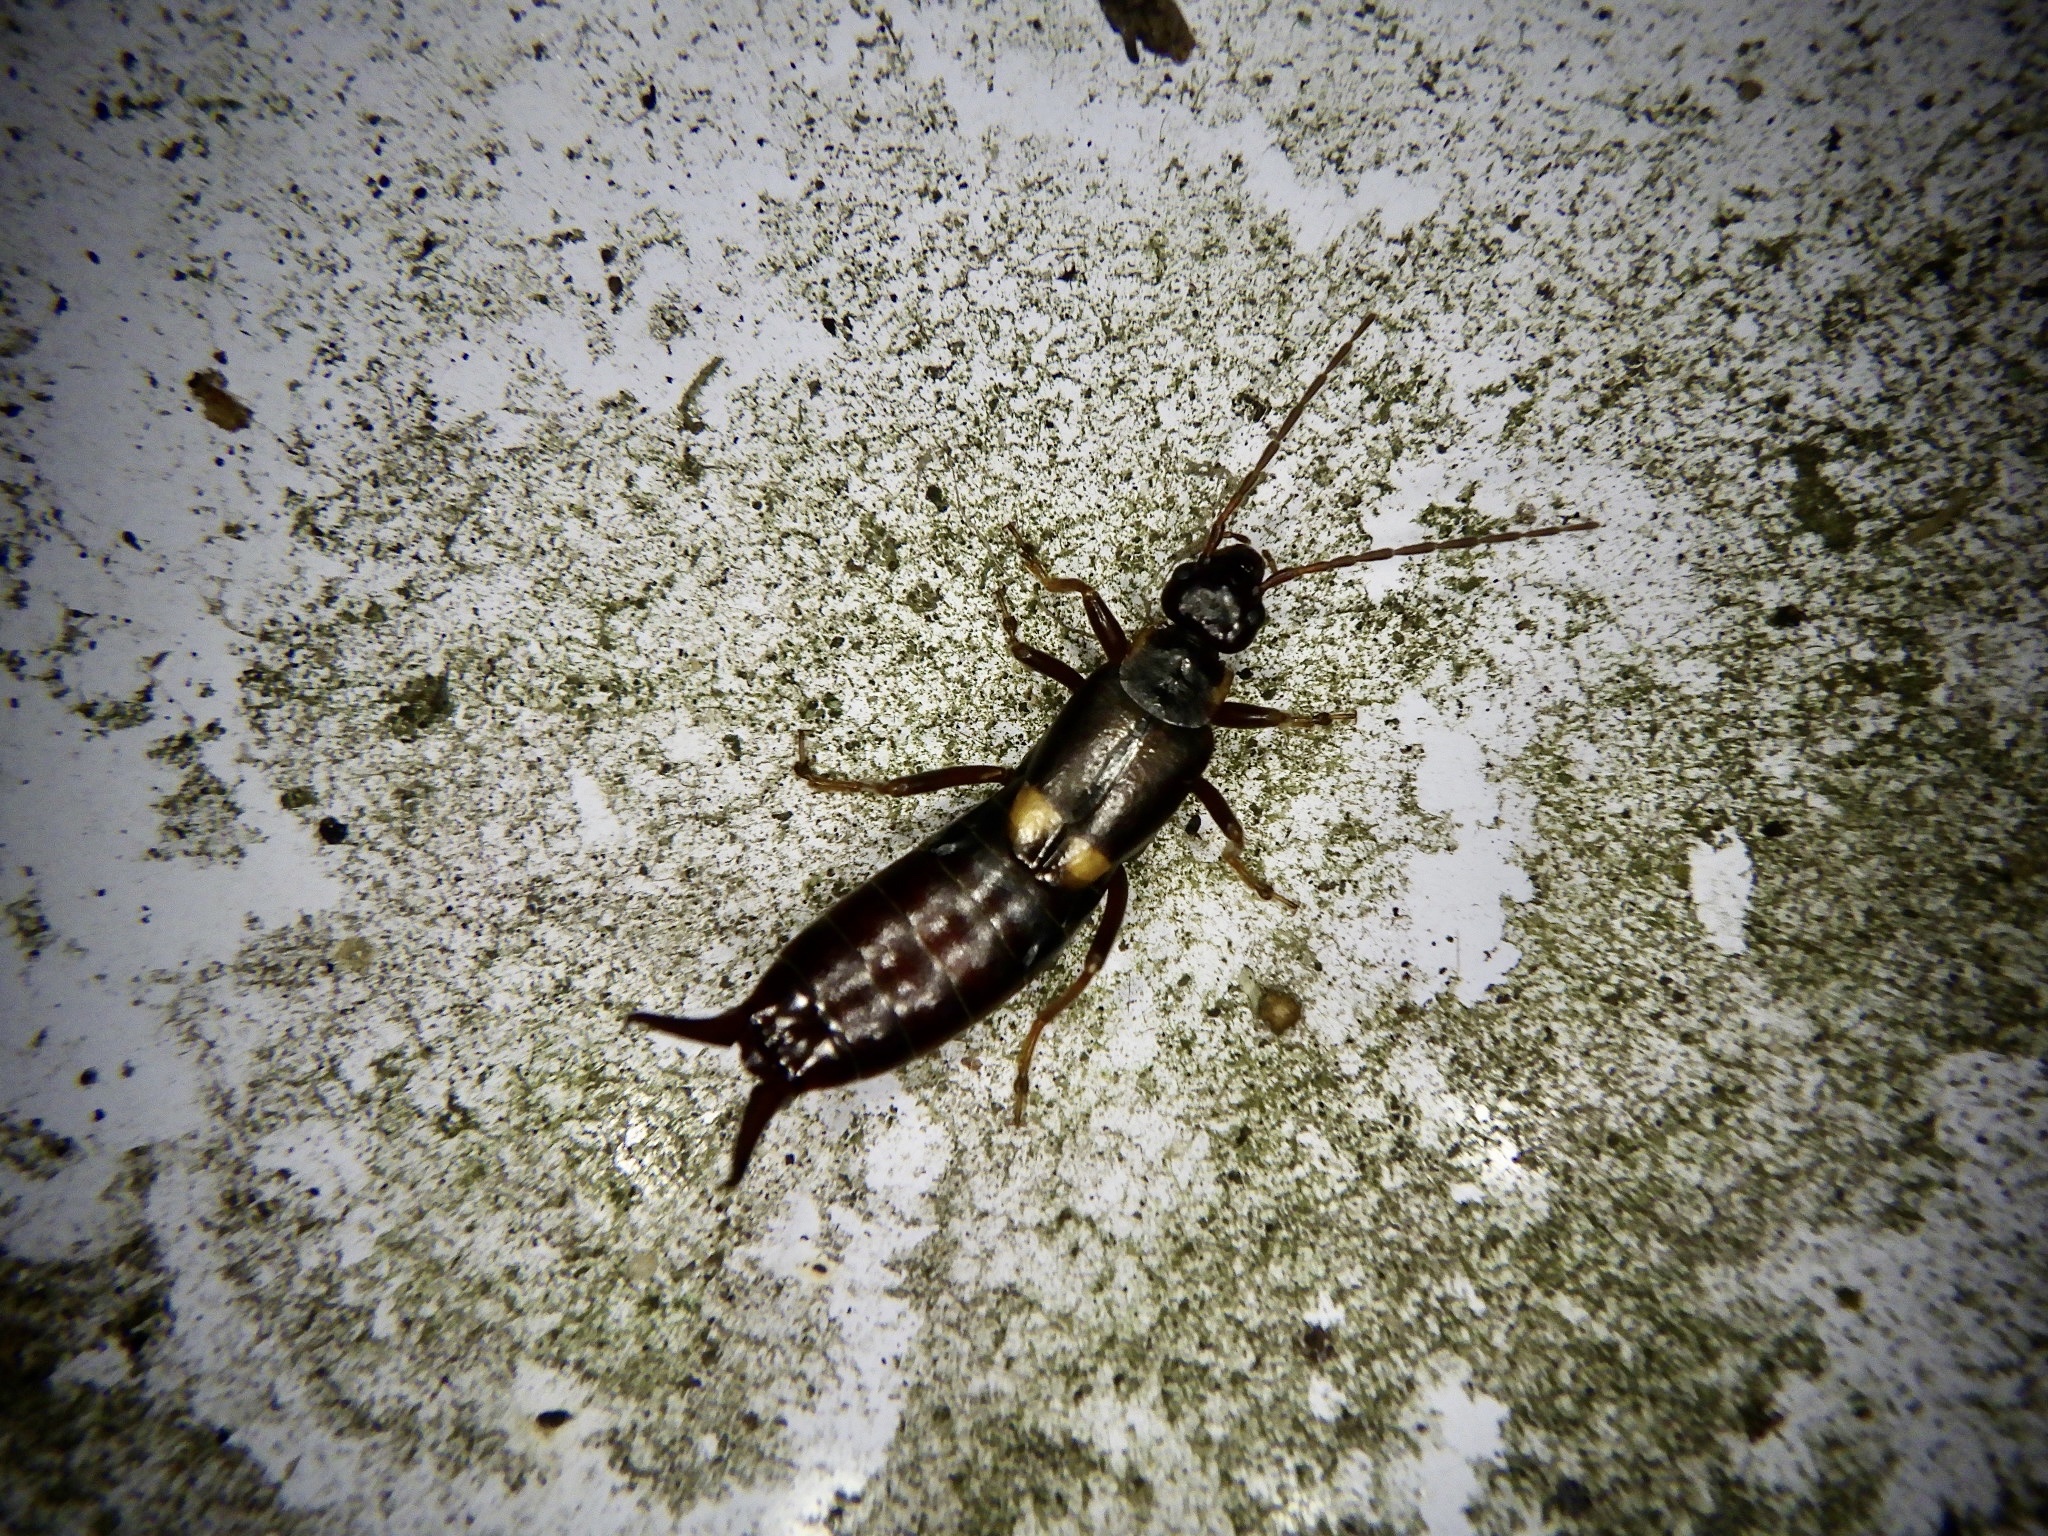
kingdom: Animalia
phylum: Arthropoda
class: Insecta
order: Dermaptera
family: Forficulidae
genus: Anechura
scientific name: Anechura harmandi
